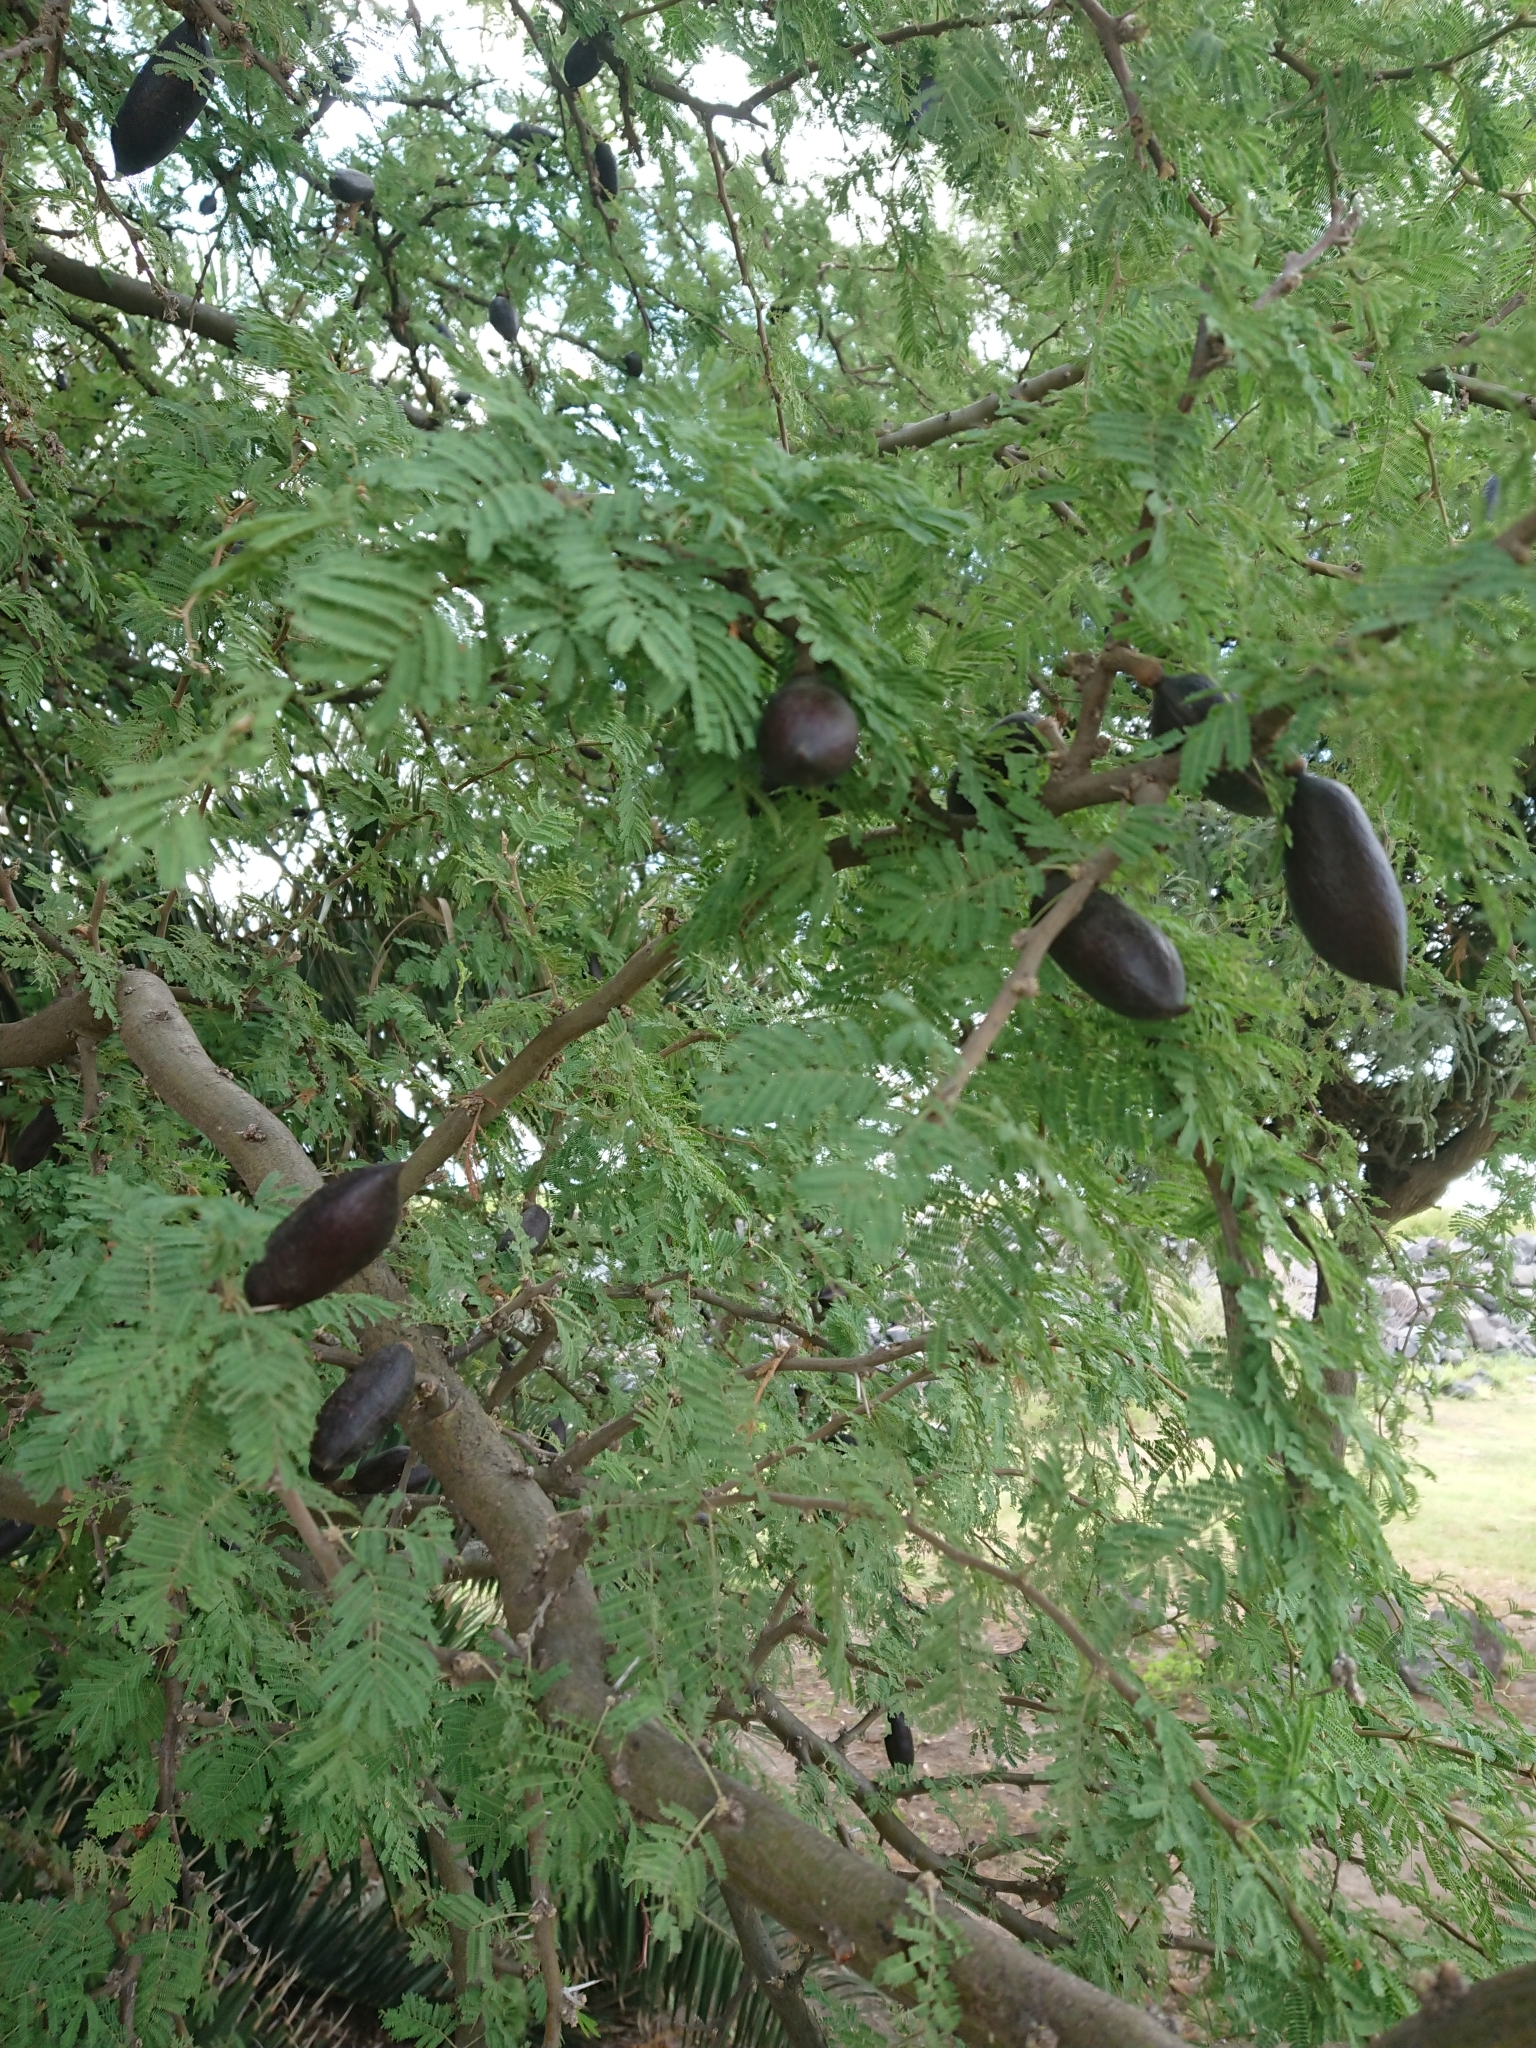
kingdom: Plantae
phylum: Tracheophyta
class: Magnoliopsida
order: Fabales
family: Fabaceae
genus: Vachellia
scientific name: Vachellia caven
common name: Roman cassie
